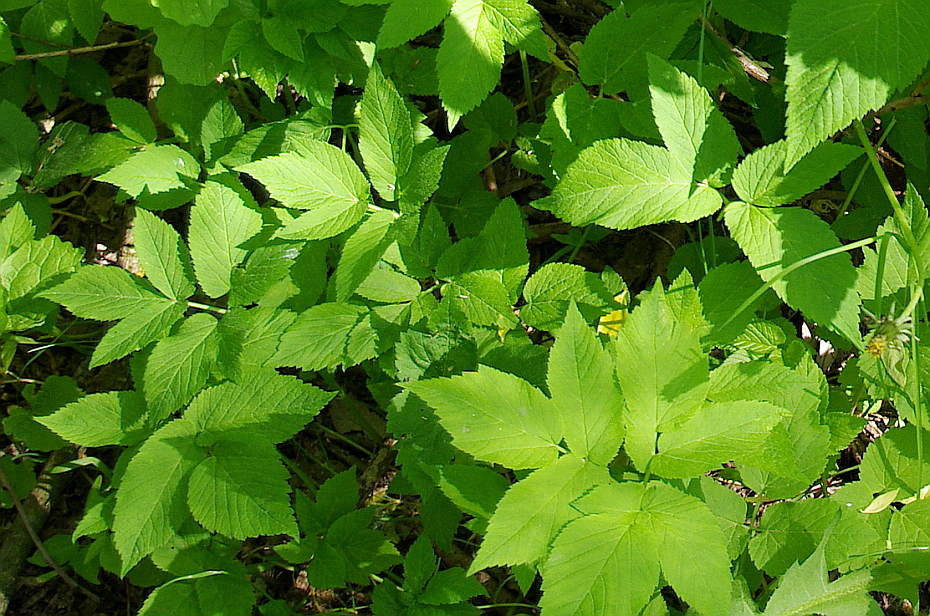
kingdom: Plantae
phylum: Tracheophyta
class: Magnoliopsida
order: Apiales
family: Apiaceae
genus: Aegopodium
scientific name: Aegopodium podagraria
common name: Ground-elder
